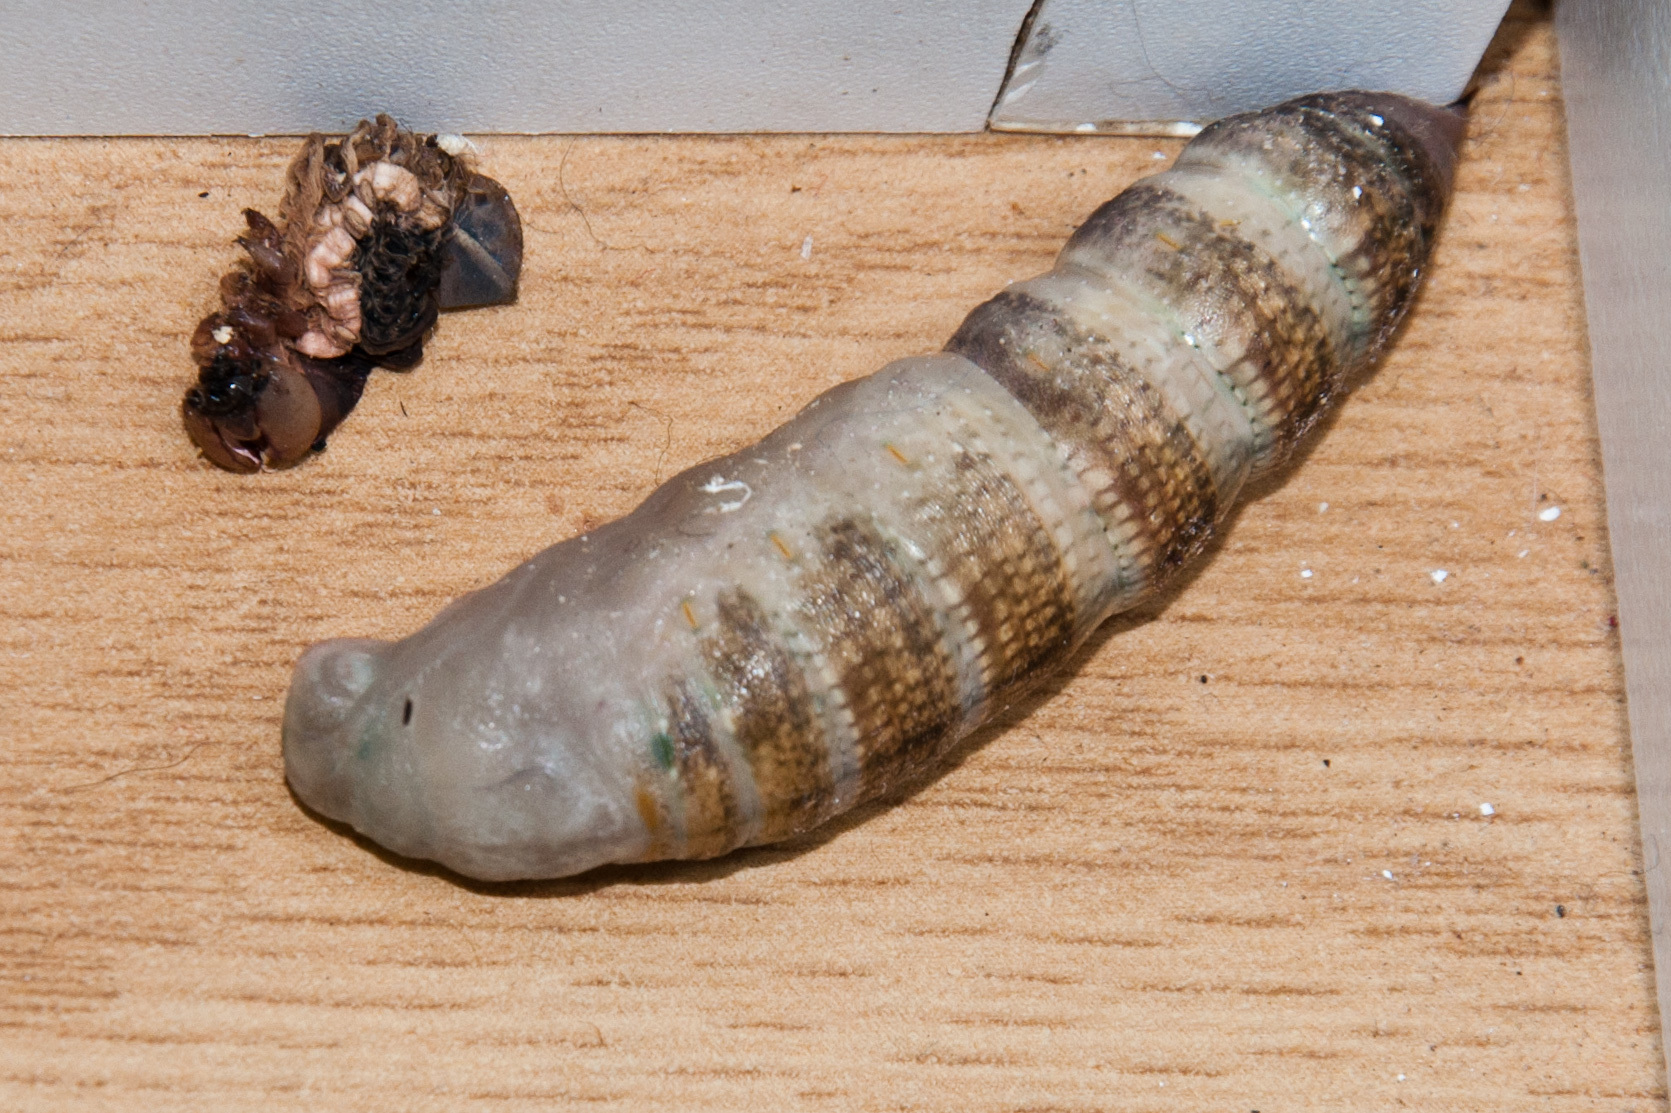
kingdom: Animalia
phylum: Arthropoda
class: Insecta
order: Lepidoptera
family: Sphingidae
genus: Hippotion
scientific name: Hippotion eson
